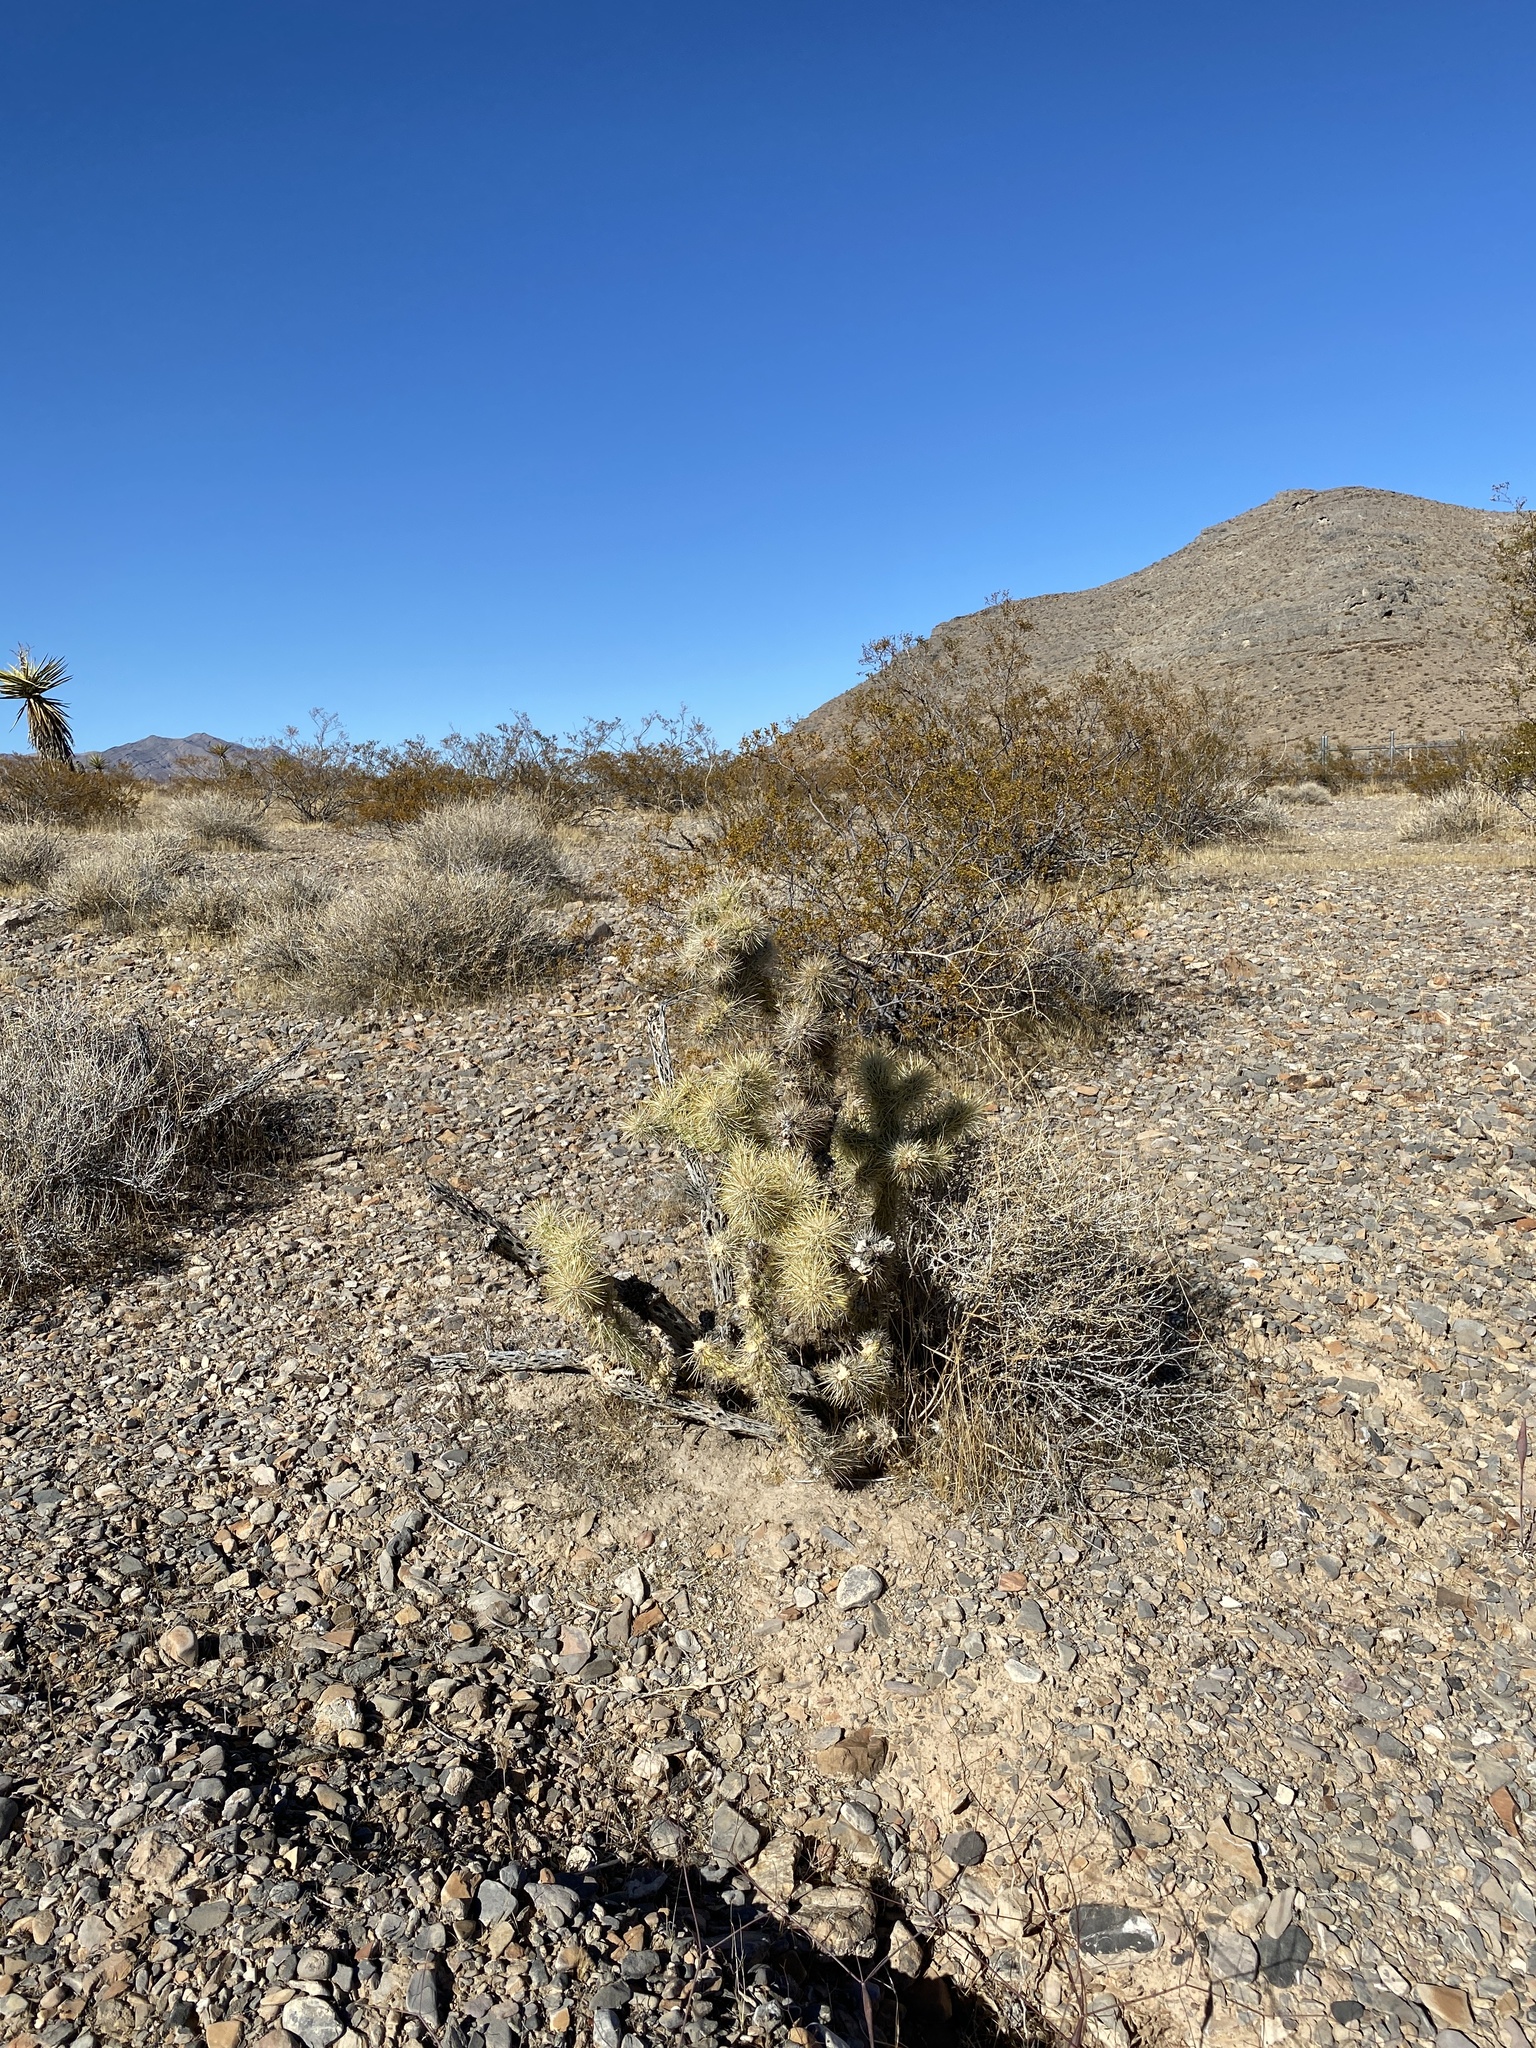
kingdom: Plantae
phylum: Tracheophyta
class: Magnoliopsida
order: Caryophyllales
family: Cactaceae
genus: Cylindropuntia
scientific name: Cylindropuntia echinocarpa
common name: Ground cholla
